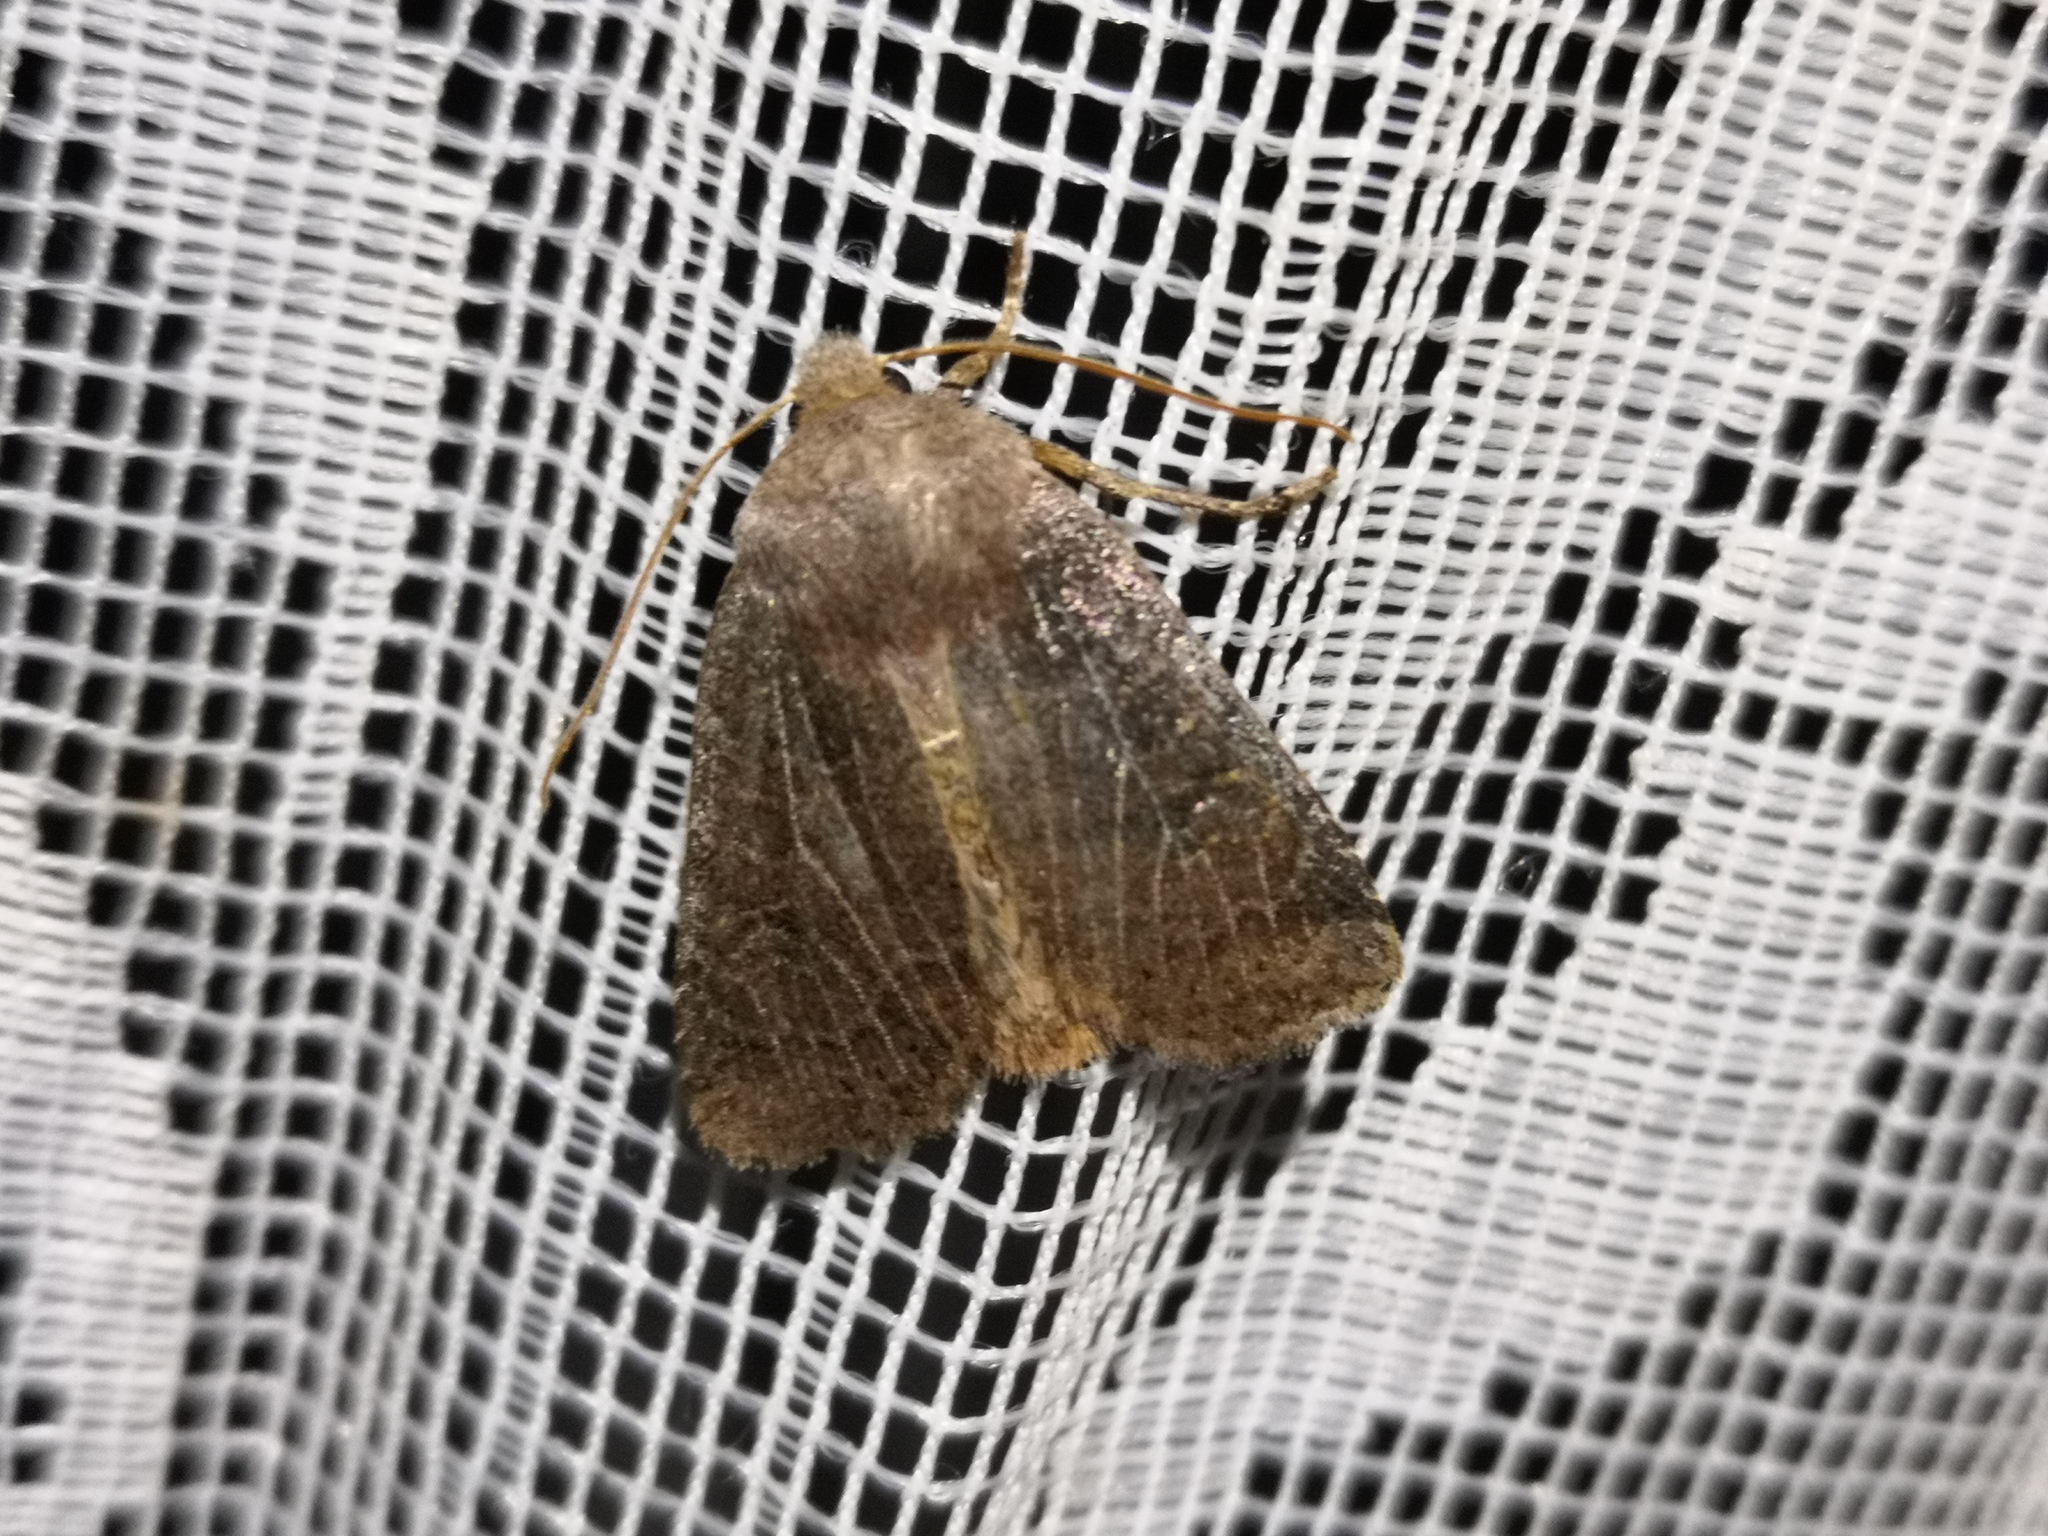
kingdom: Animalia
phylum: Arthropoda
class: Insecta
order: Lepidoptera
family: Noctuidae
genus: Conistra
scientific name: Conistra vaccinii
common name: Chestnut
